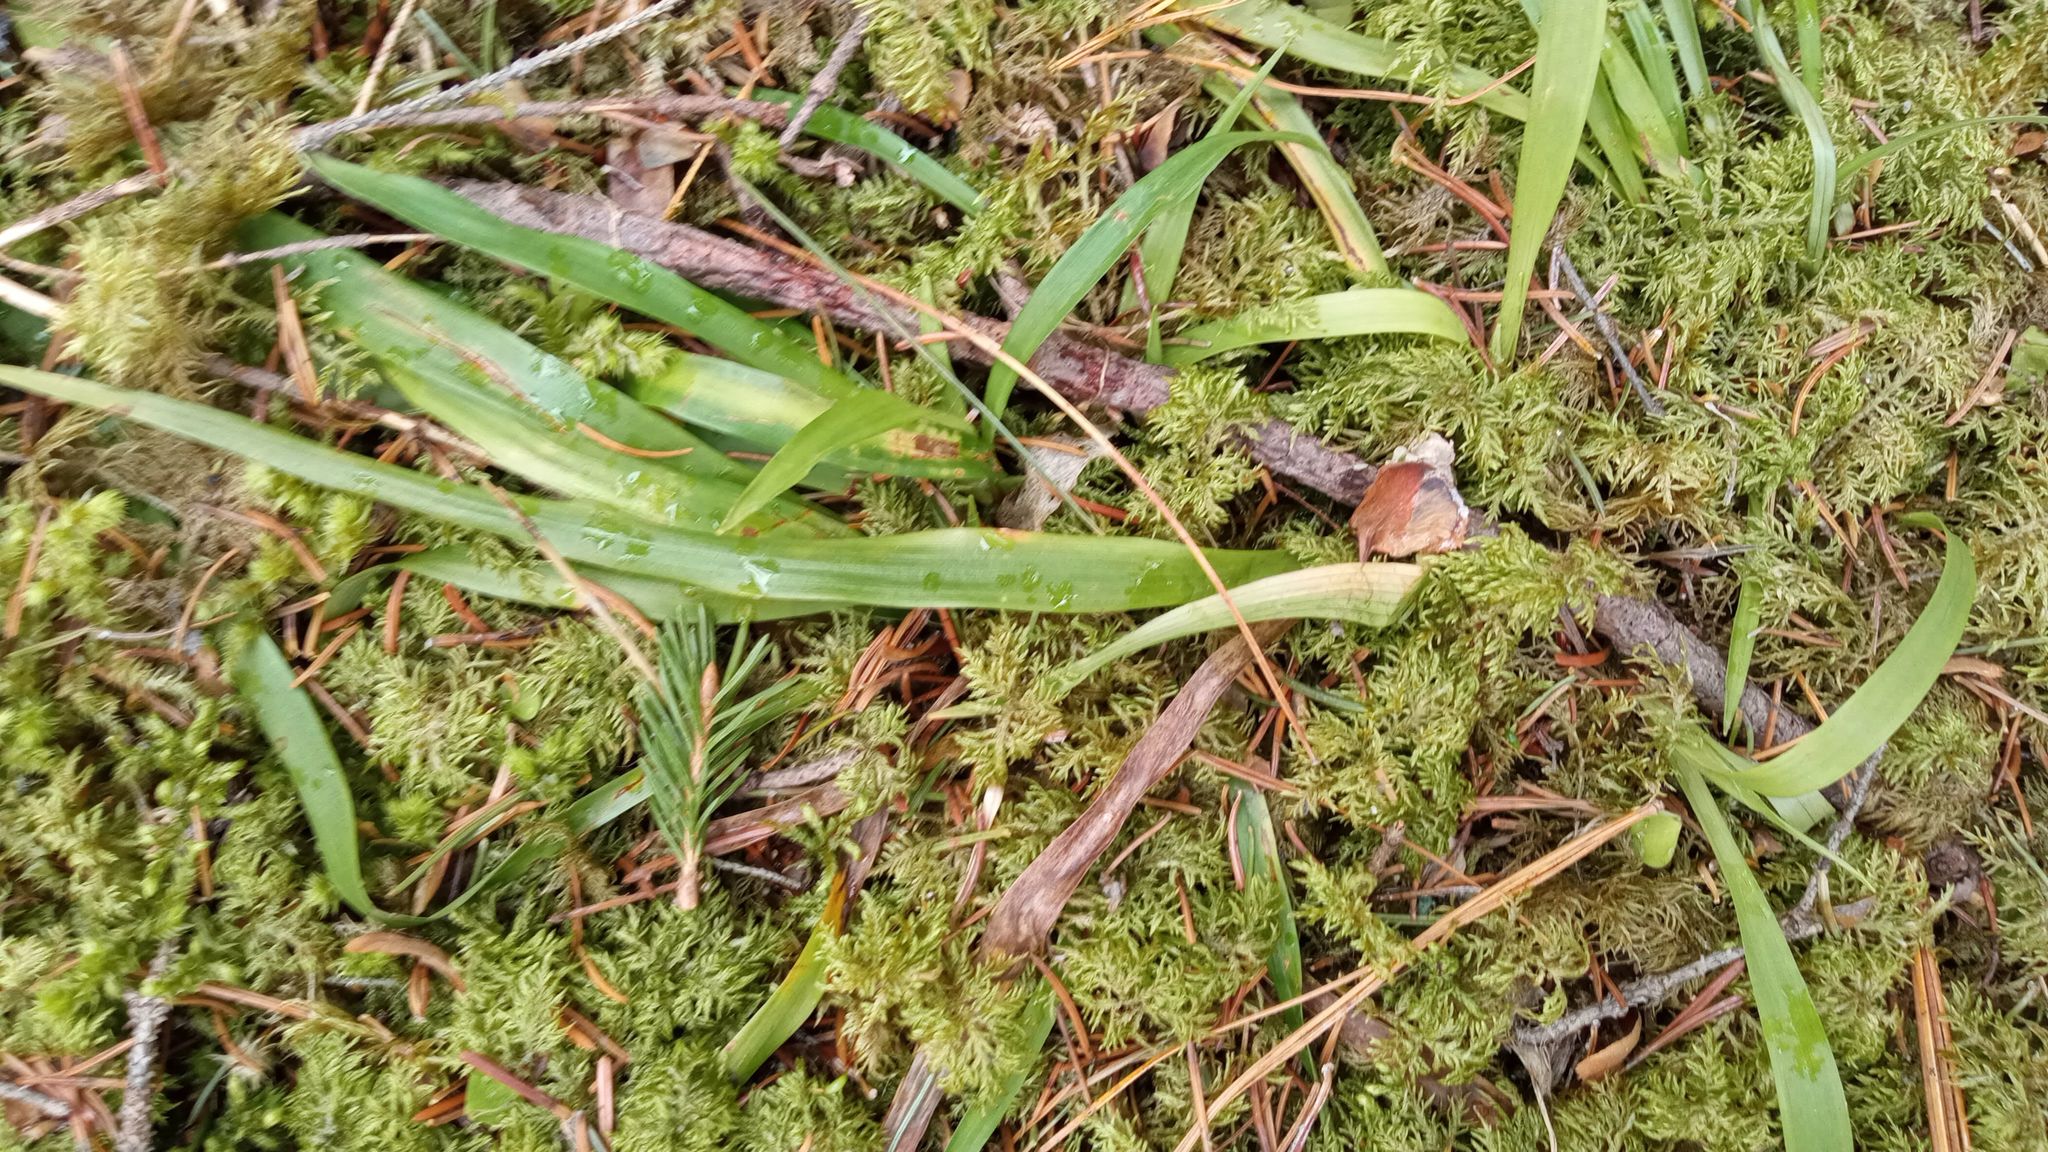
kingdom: Plantae
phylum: Bryophyta
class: Bryopsida
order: Hypnales
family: Hylocomiaceae
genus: Hylocomium
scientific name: Hylocomium splendens
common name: Stairstep moss
